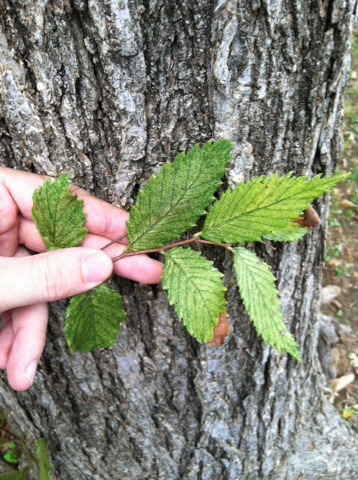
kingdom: Plantae
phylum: Tracheophyta
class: Magnoliopsida
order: Rosales
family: Ulmaceae
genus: Ulmus
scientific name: Ulmus americana
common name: American elm
